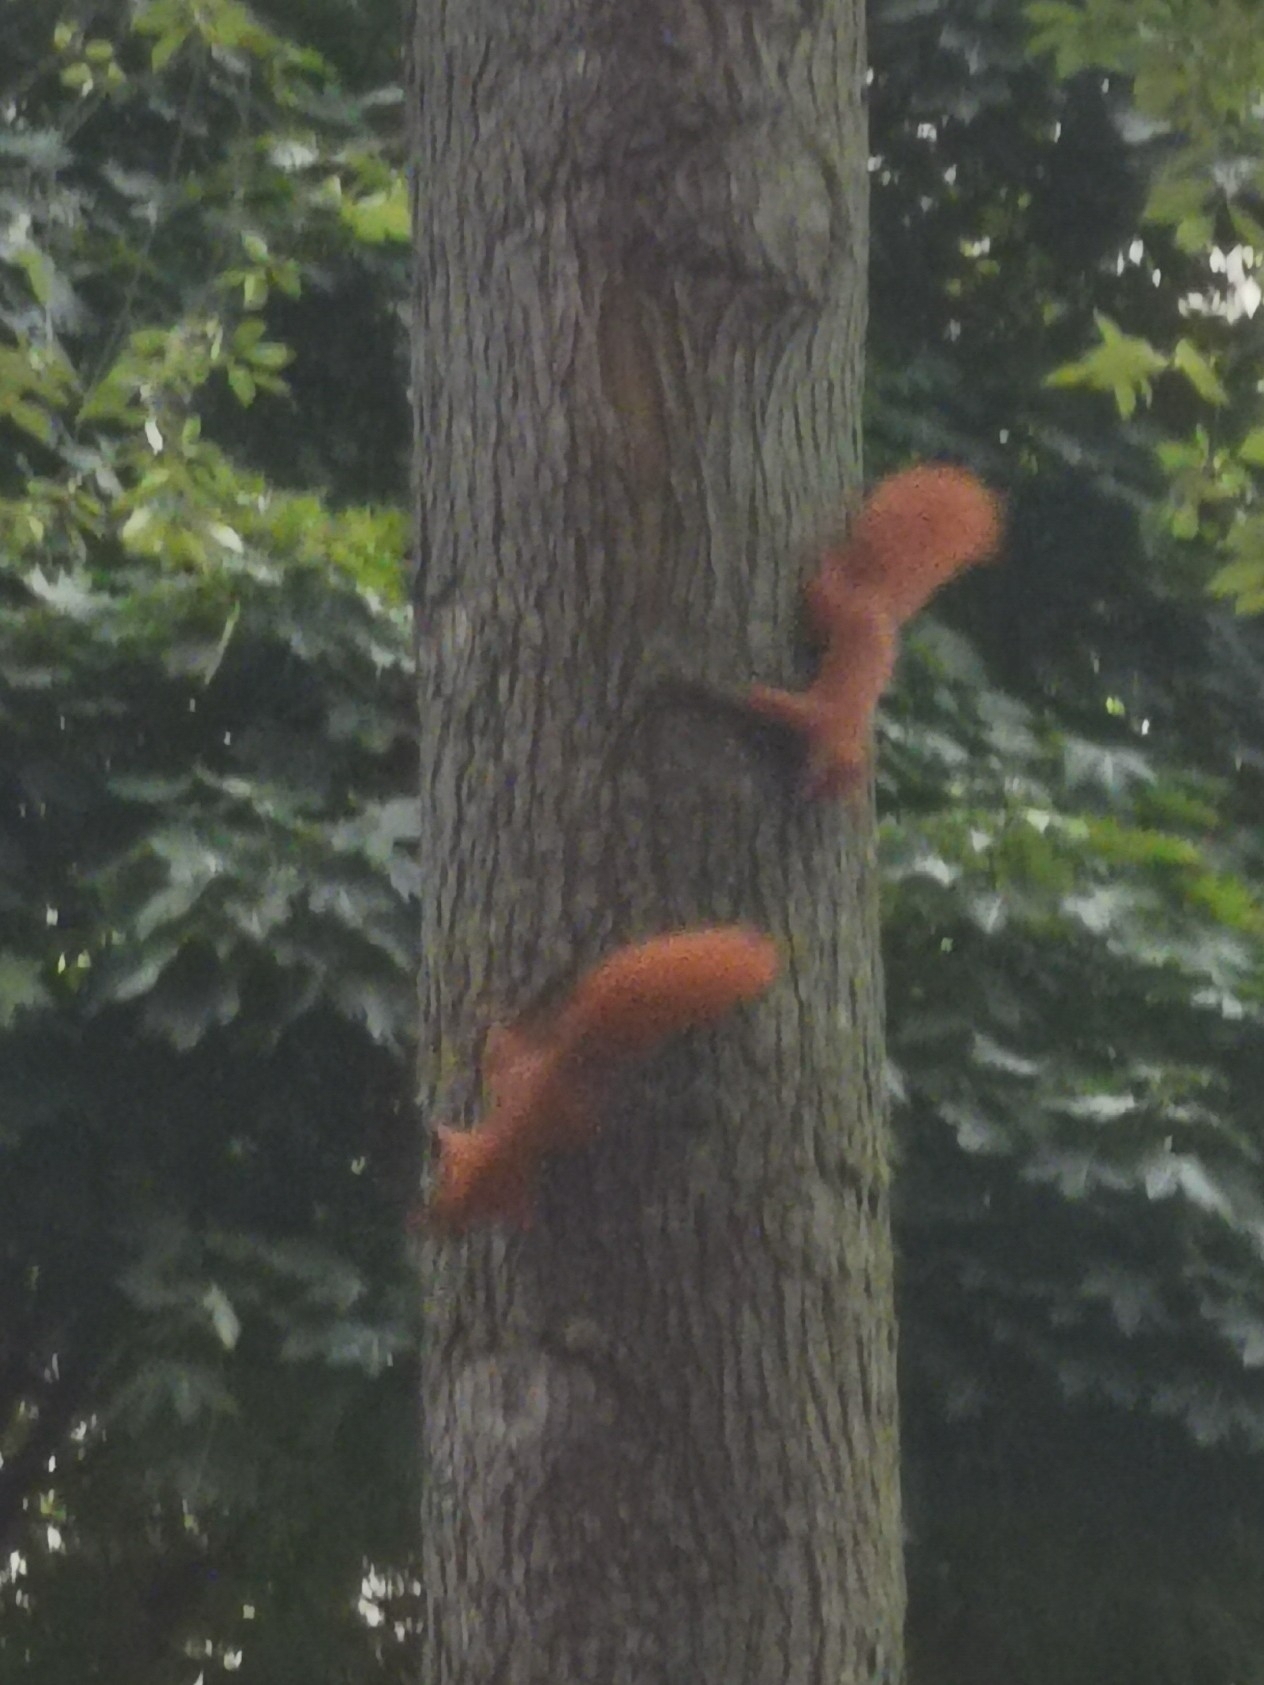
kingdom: Animalia
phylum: Chordata
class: Mammalia
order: Rodentia
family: Sciuridae
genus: Sciurus
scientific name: Sciurus vulgaris
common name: Eurasian red squirrel
